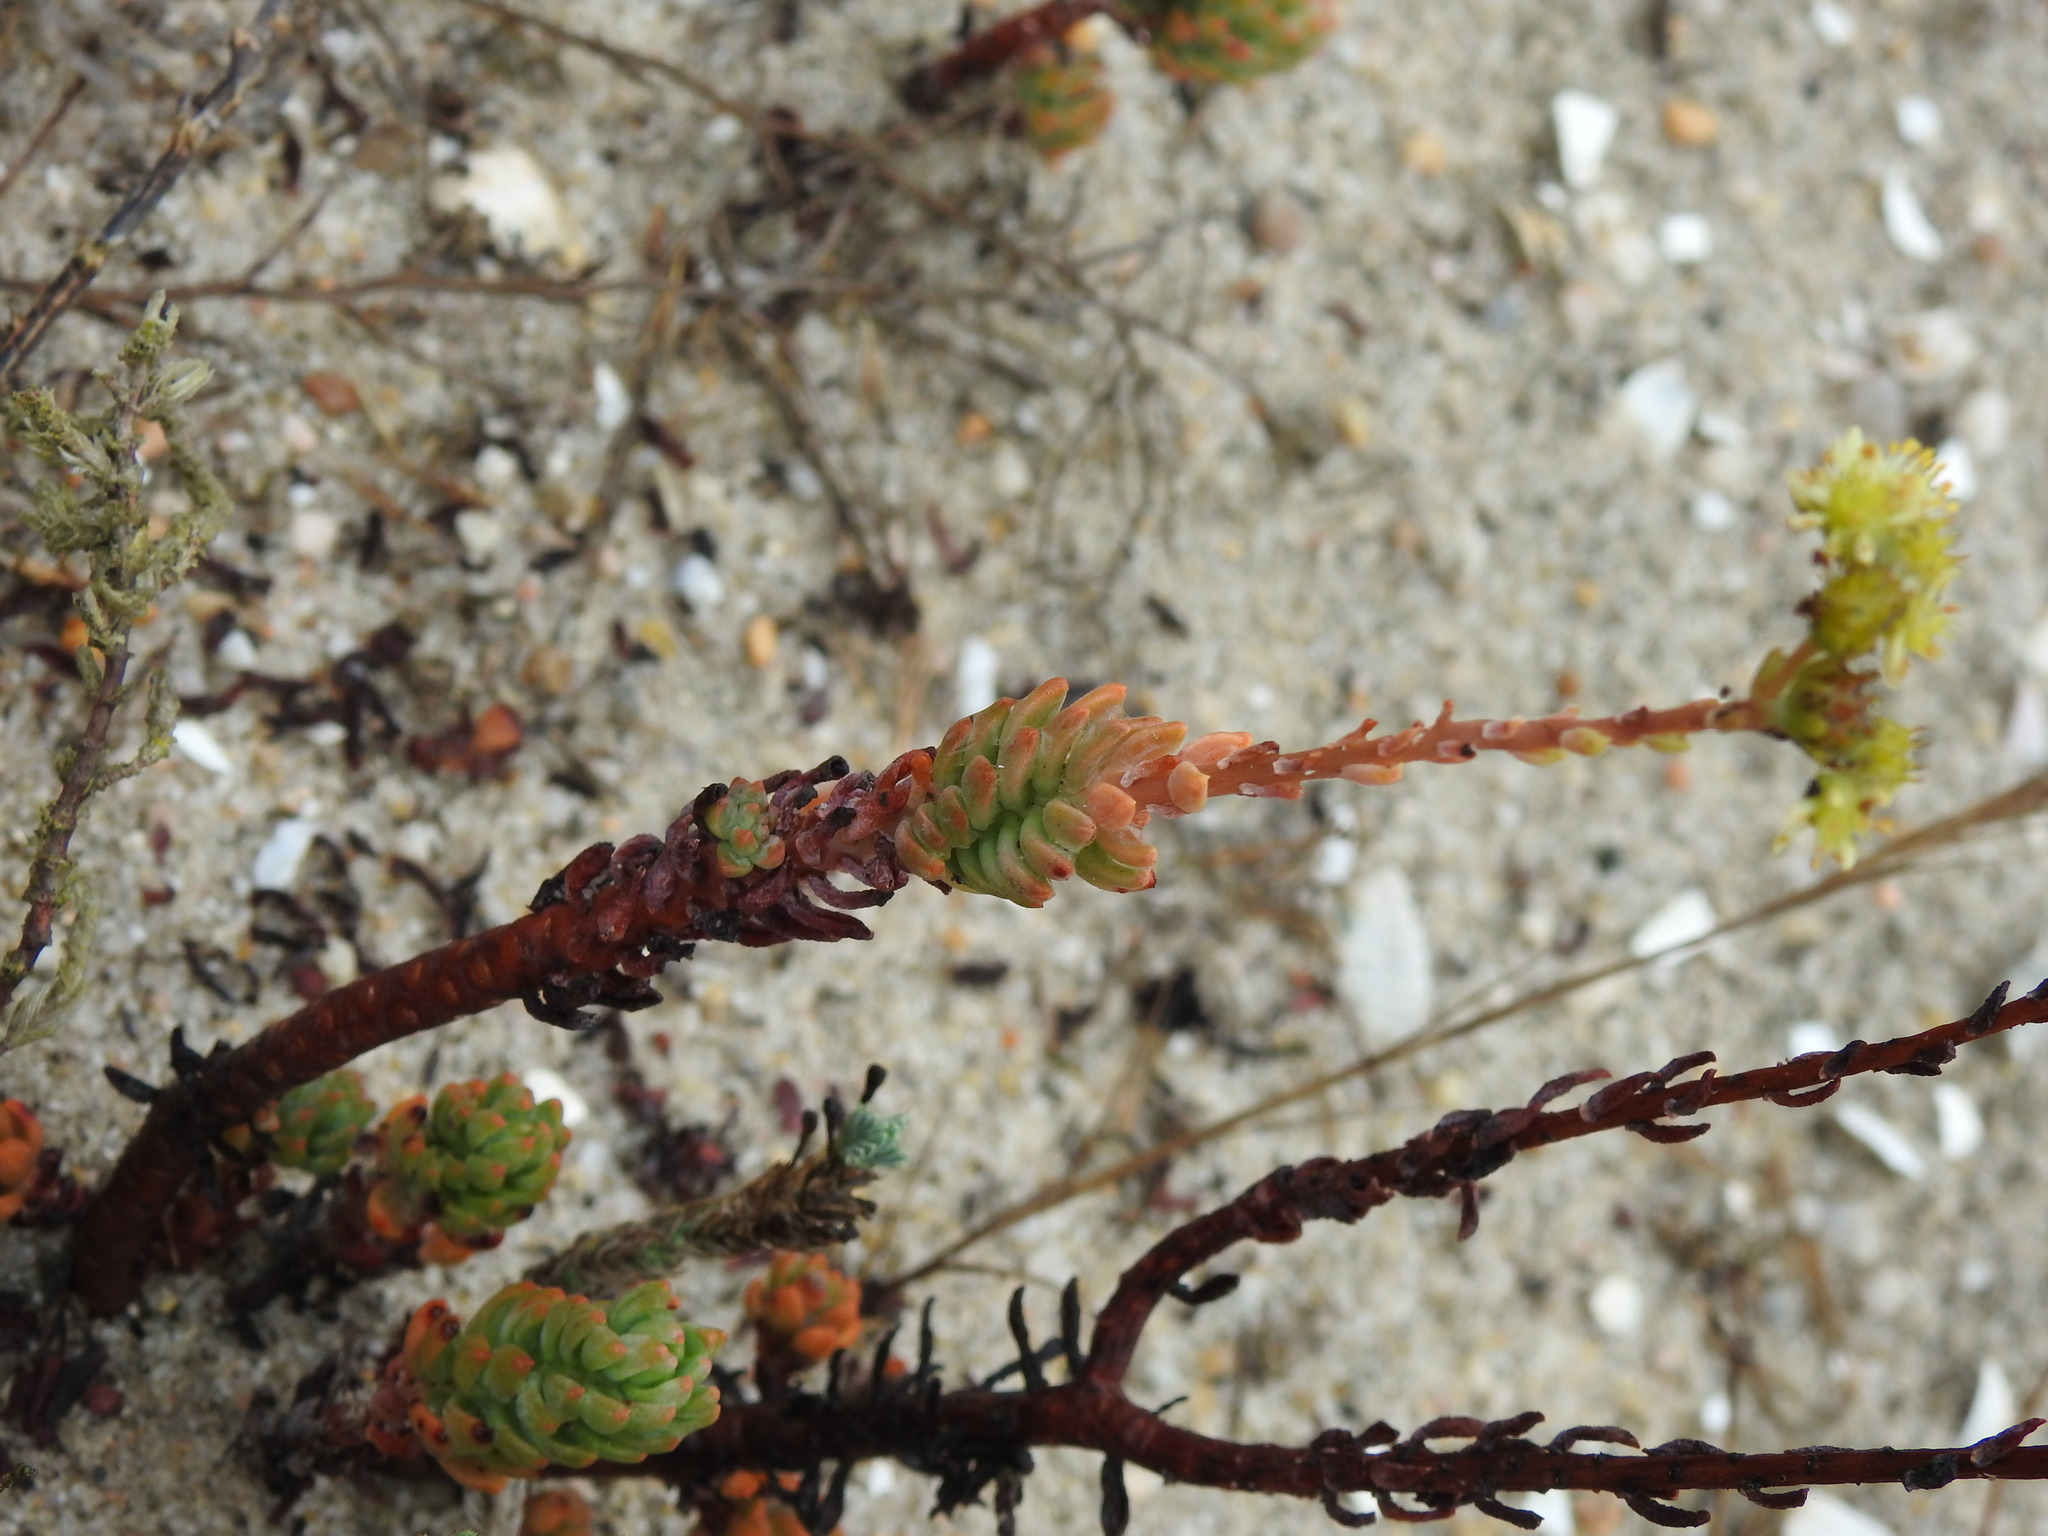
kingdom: Plantae
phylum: Tracheophyta
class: Magnoliopsida
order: Saxifragales
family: Crassulaceae
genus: Petrosedum
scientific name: Petrosedum sediforme
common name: Pale stonecrop
